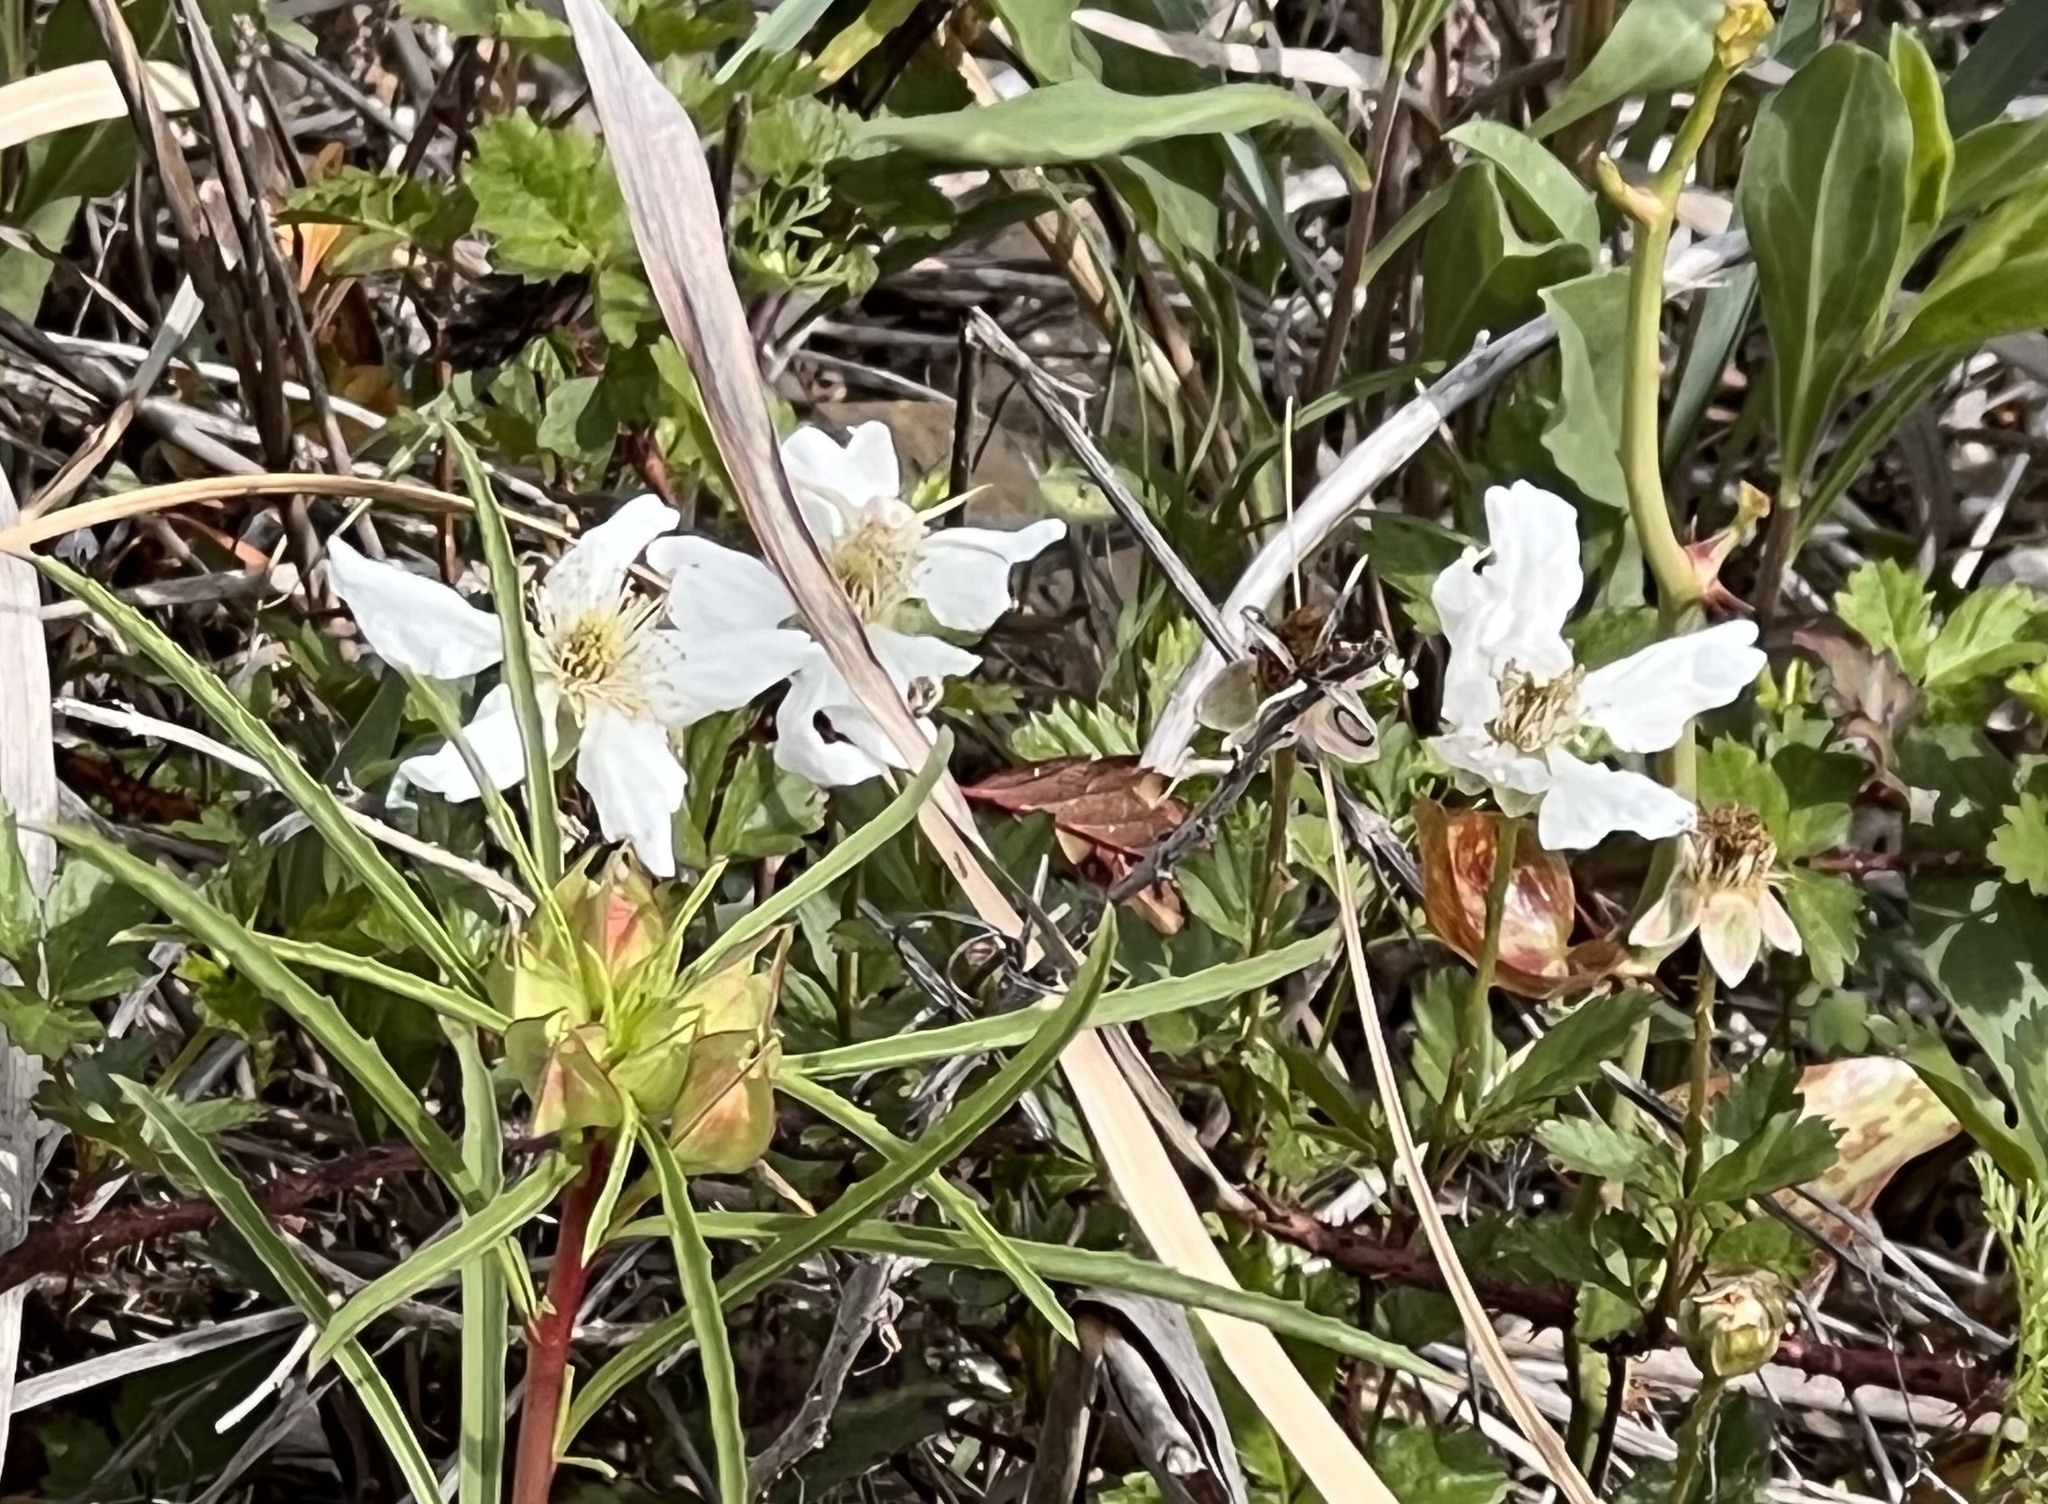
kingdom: Plantae
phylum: Tracheophyta
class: Magnoliopsida
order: Rosales
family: Rosaceae
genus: Rubus
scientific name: Rubus trivialis
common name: Southern dewberry
